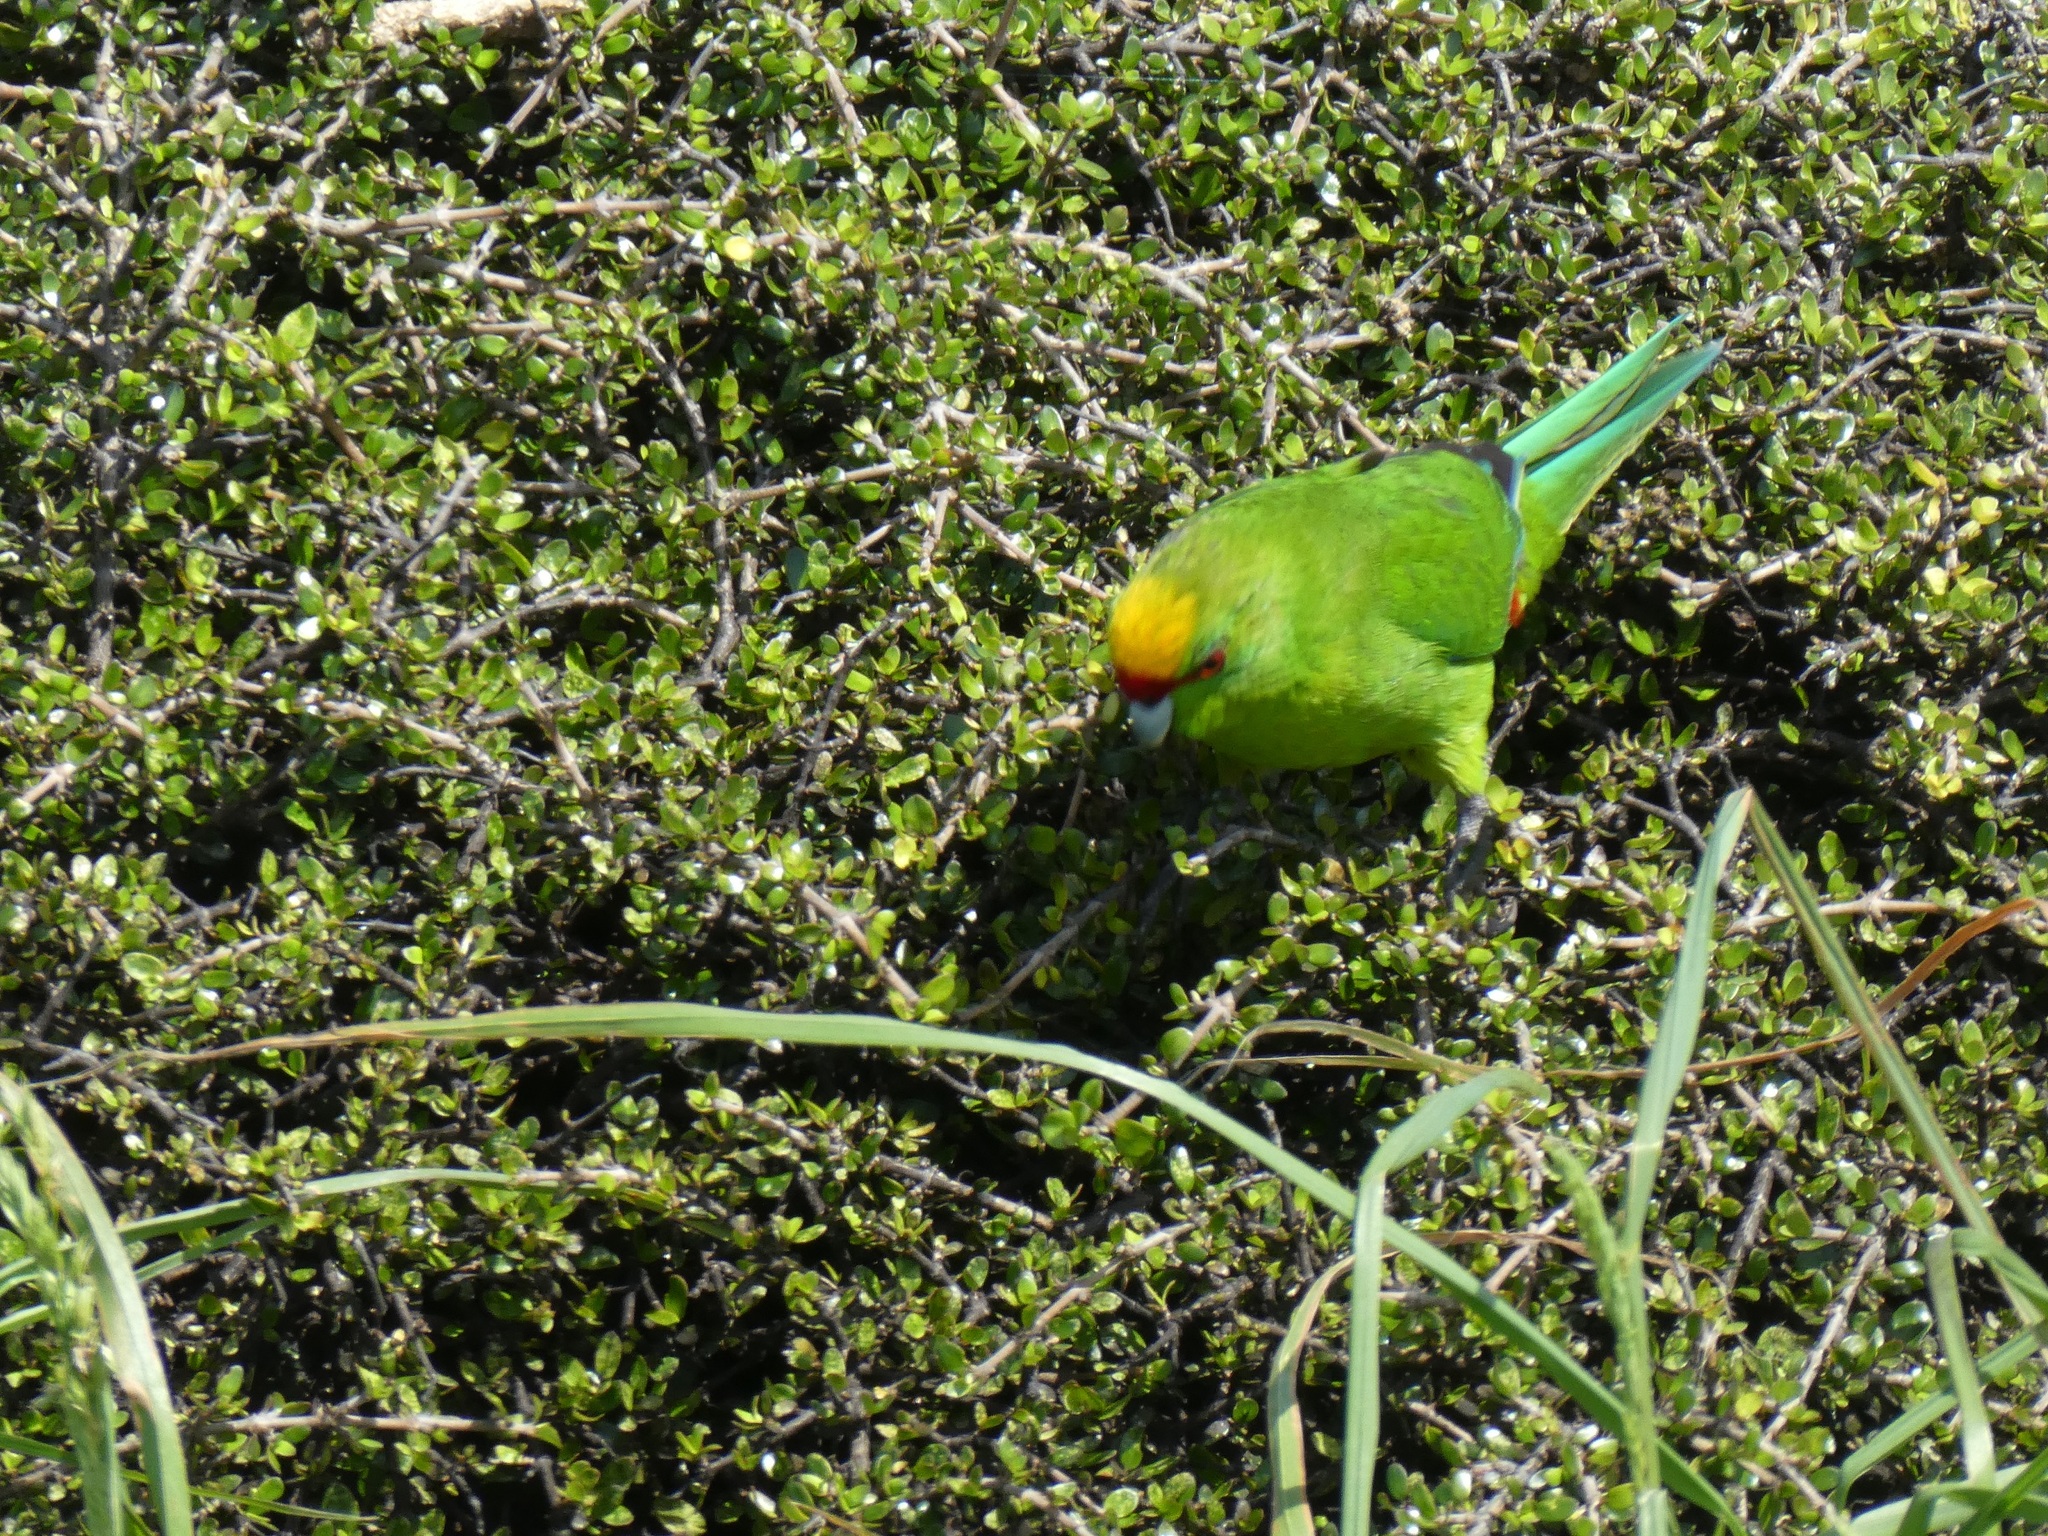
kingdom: Animalia
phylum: Chordata
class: Aves
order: Psittaciformes
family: Psittacidae
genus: Cyanoramphus
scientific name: Cyanoramphus auriceps
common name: Yellow-crowned parakeet
